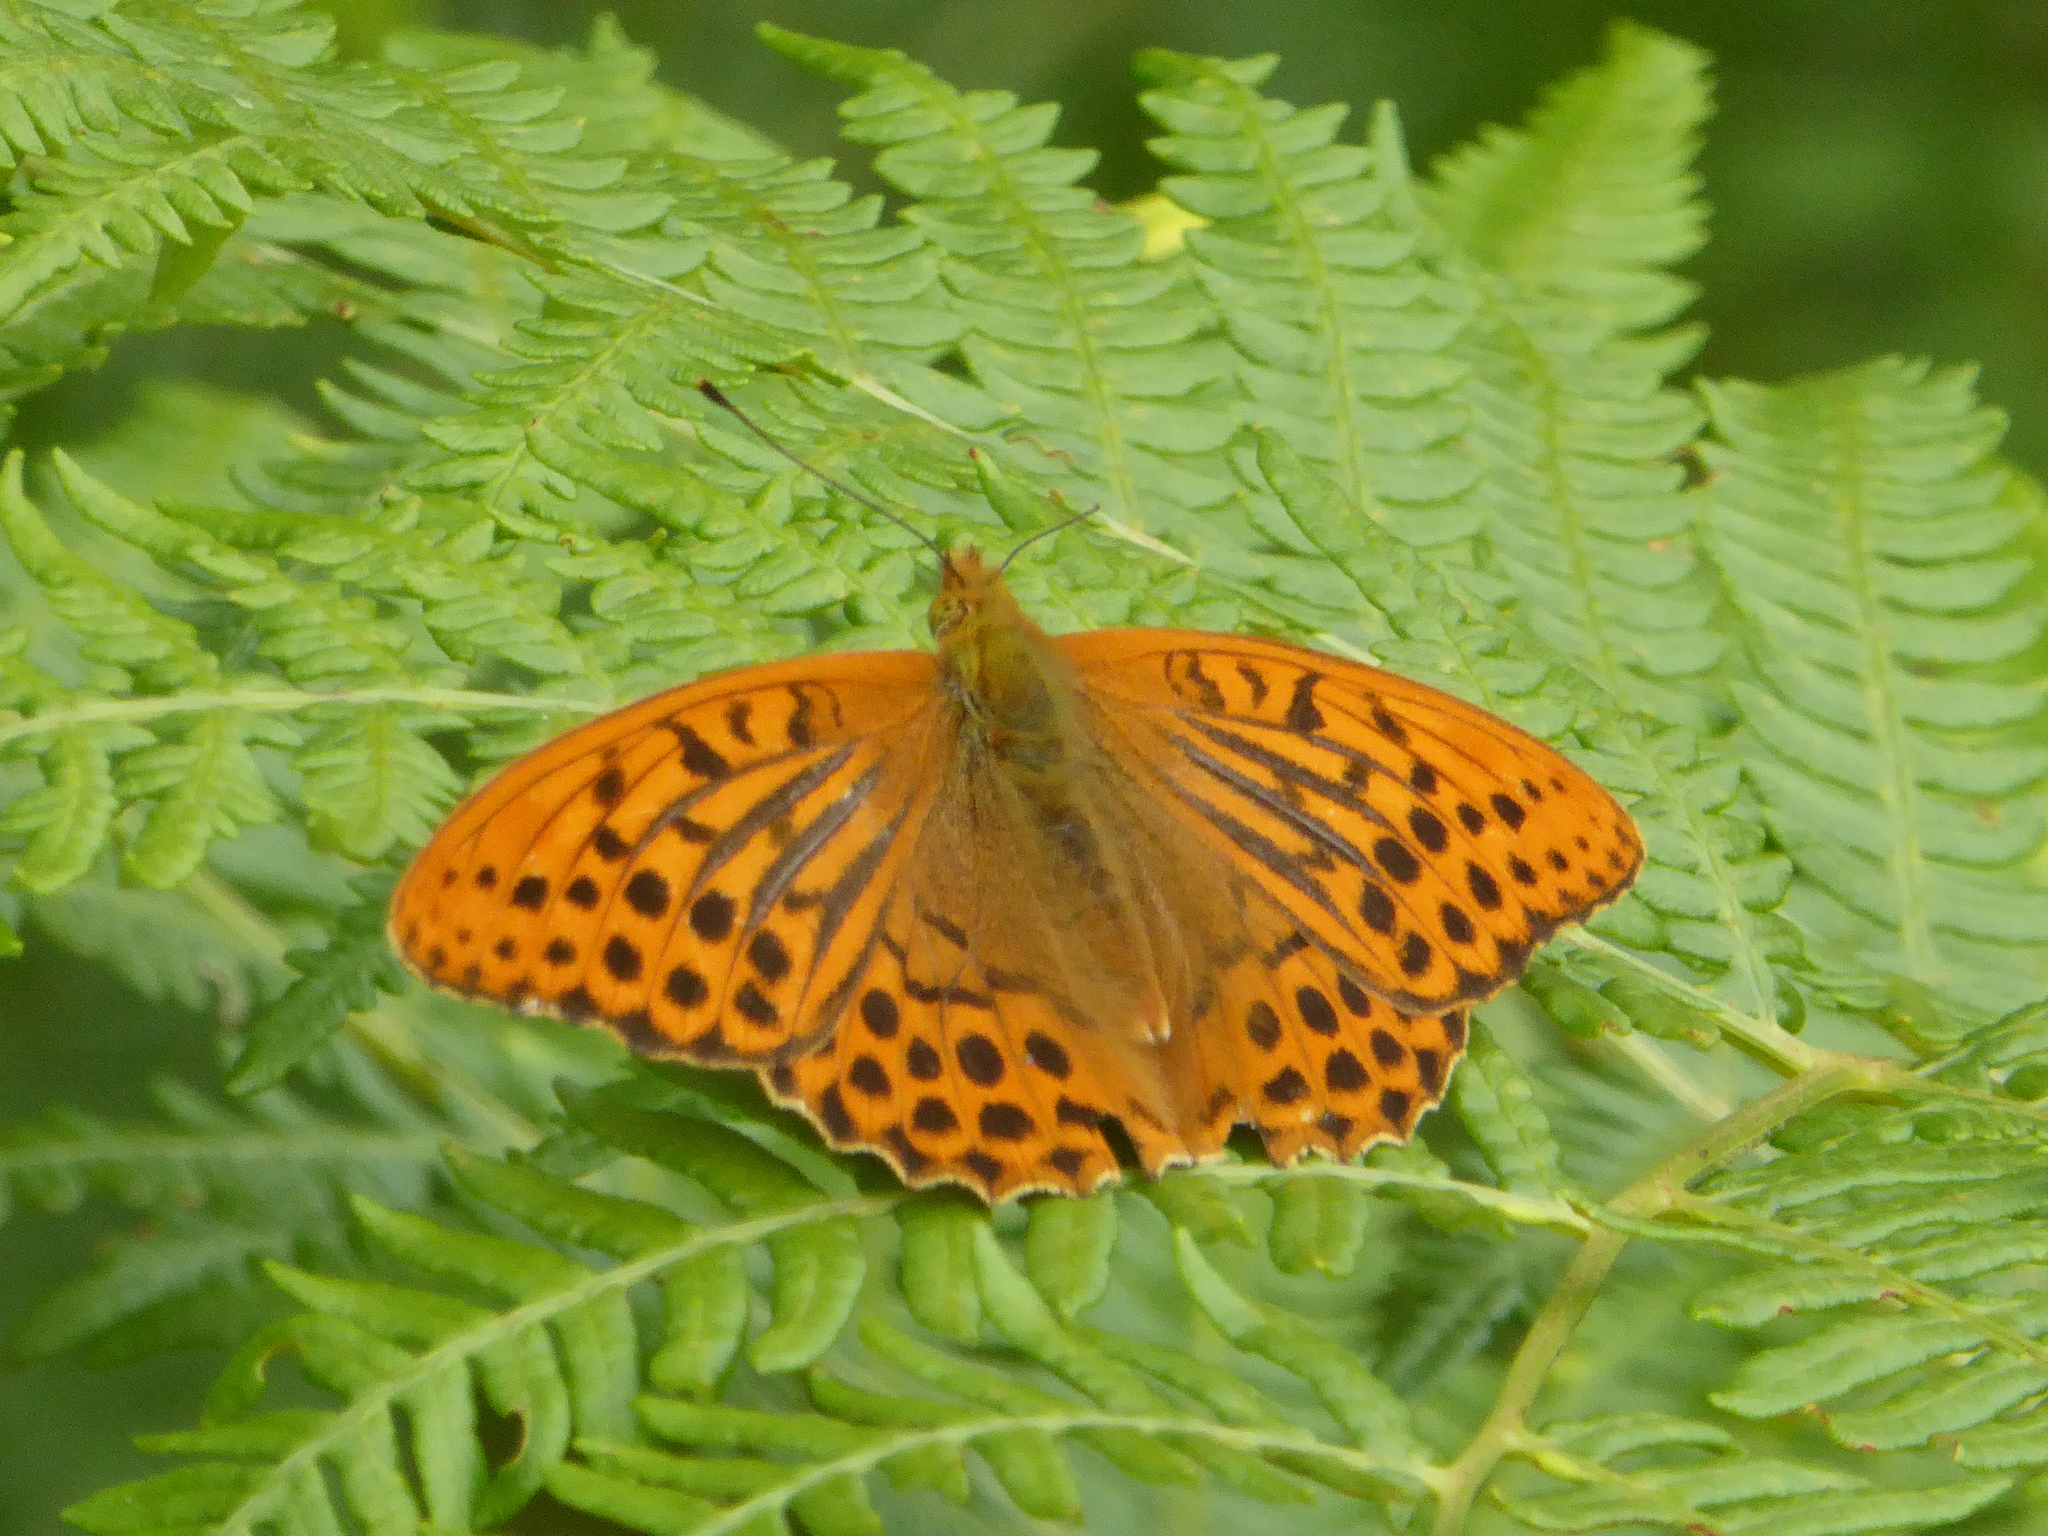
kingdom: Animalia
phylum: Arthropoda
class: Insecta
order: Lepidoptera
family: Nymphalidae
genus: Argynnis
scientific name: Argynnis paphia
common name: Silver-washed fritillary
